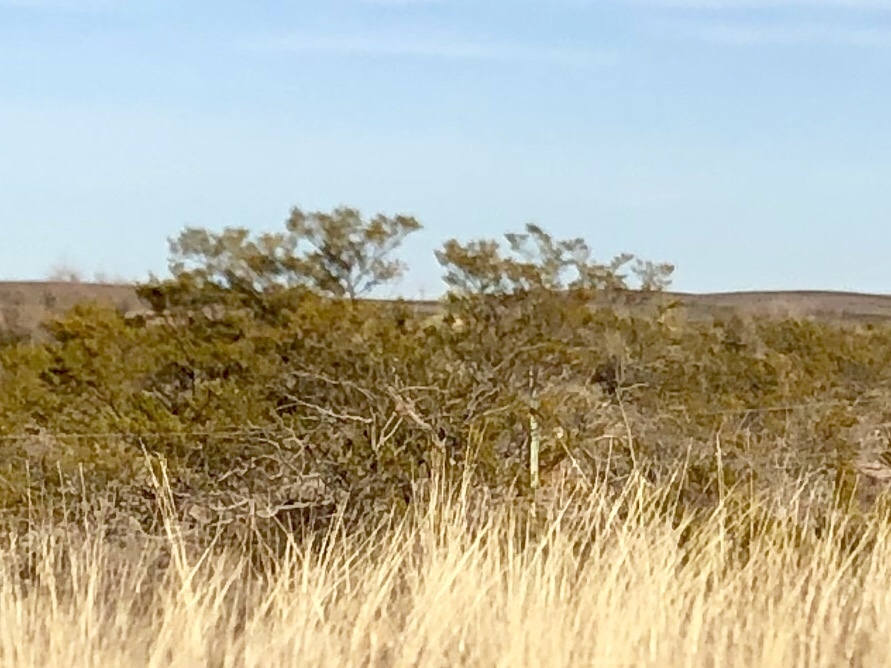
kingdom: Plantae
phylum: Tracheophyta
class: Magnoliopsida
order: Zygophyllales
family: Zygophyllaceae
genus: Larrea
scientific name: Larrea tridentata
